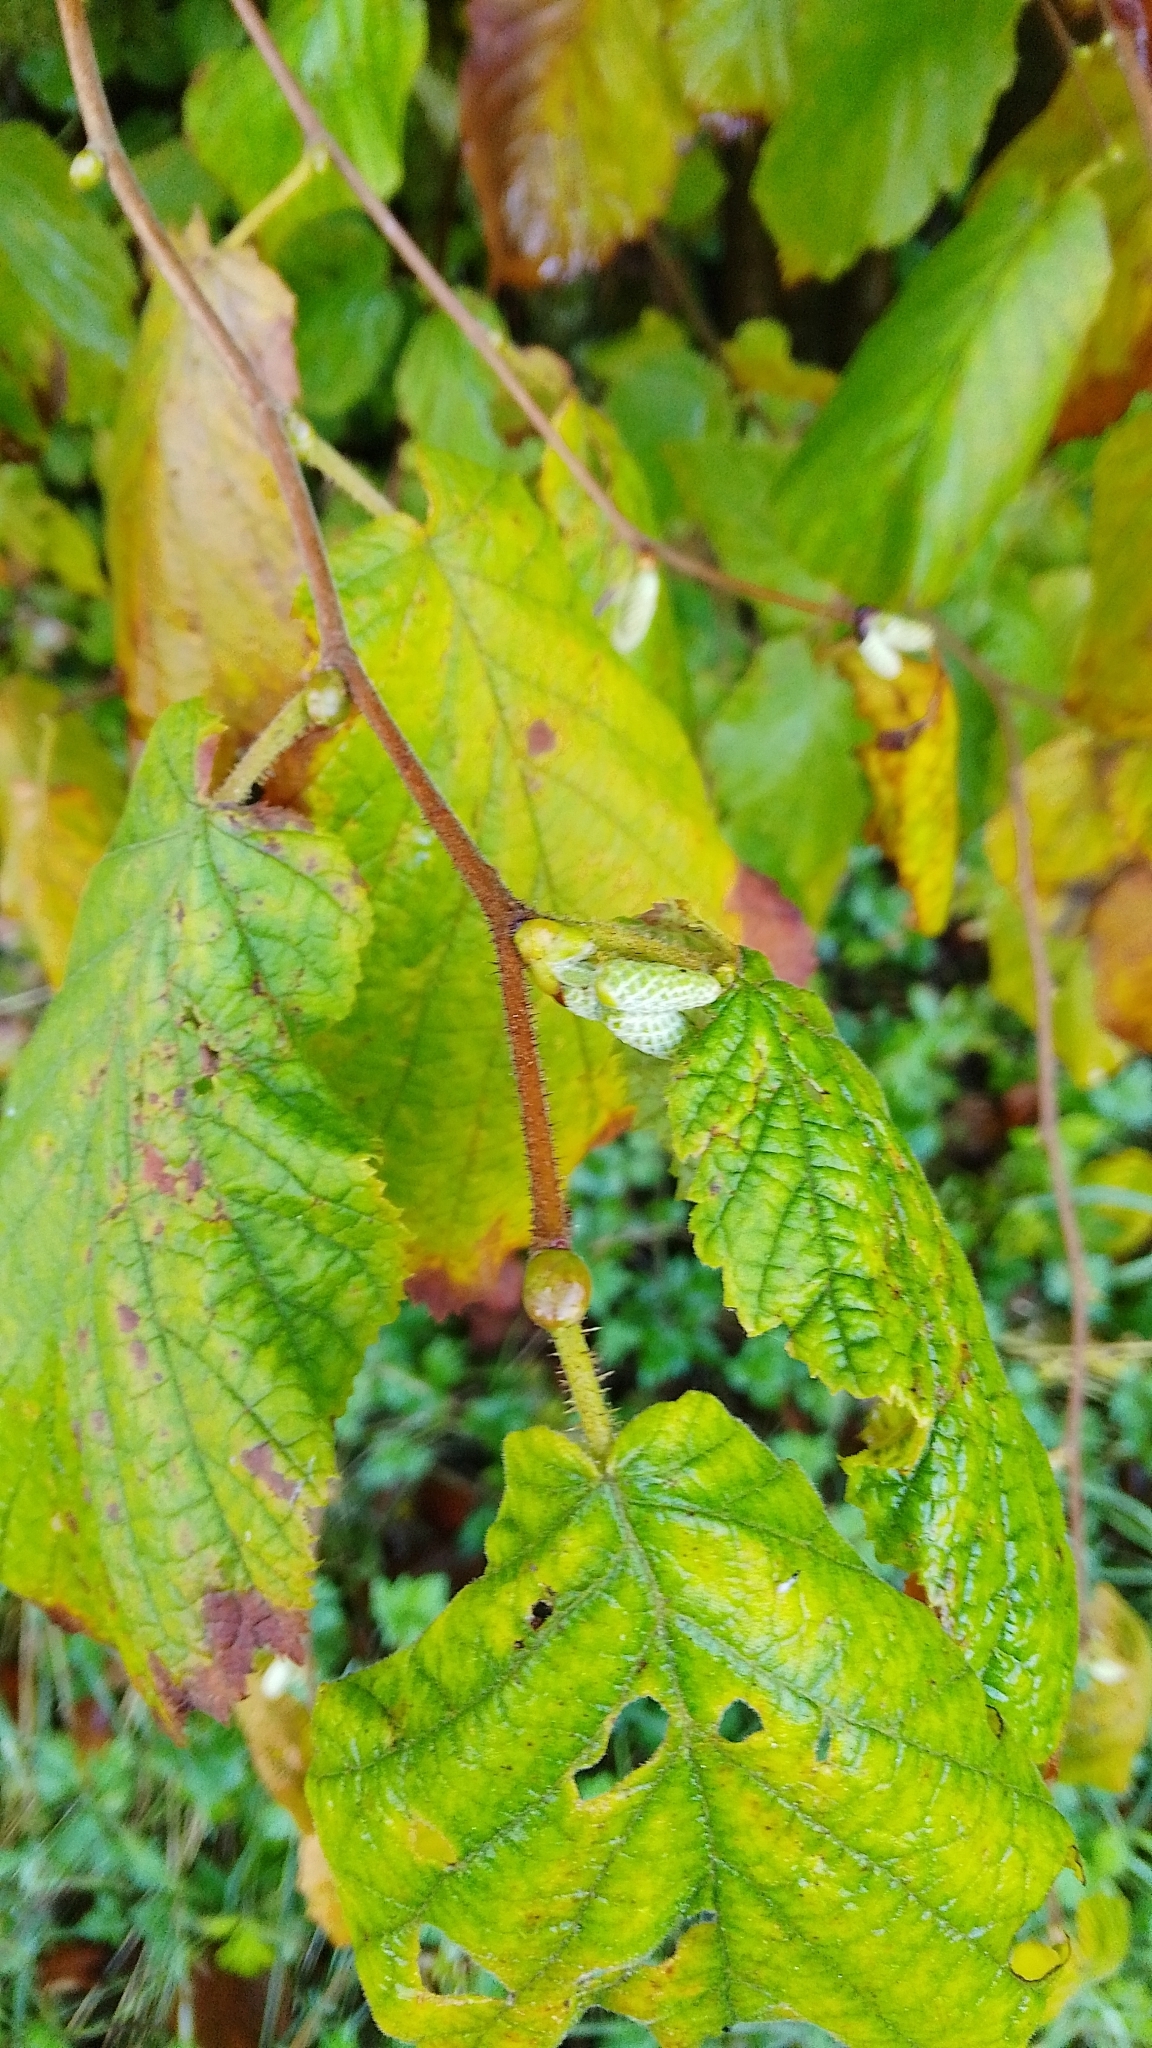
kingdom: Plantae
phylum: Tracheophyta
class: Magnoliopsida
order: Fagales
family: Betulaceae
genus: Corylus
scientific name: Corylus avellana
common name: European hazel
